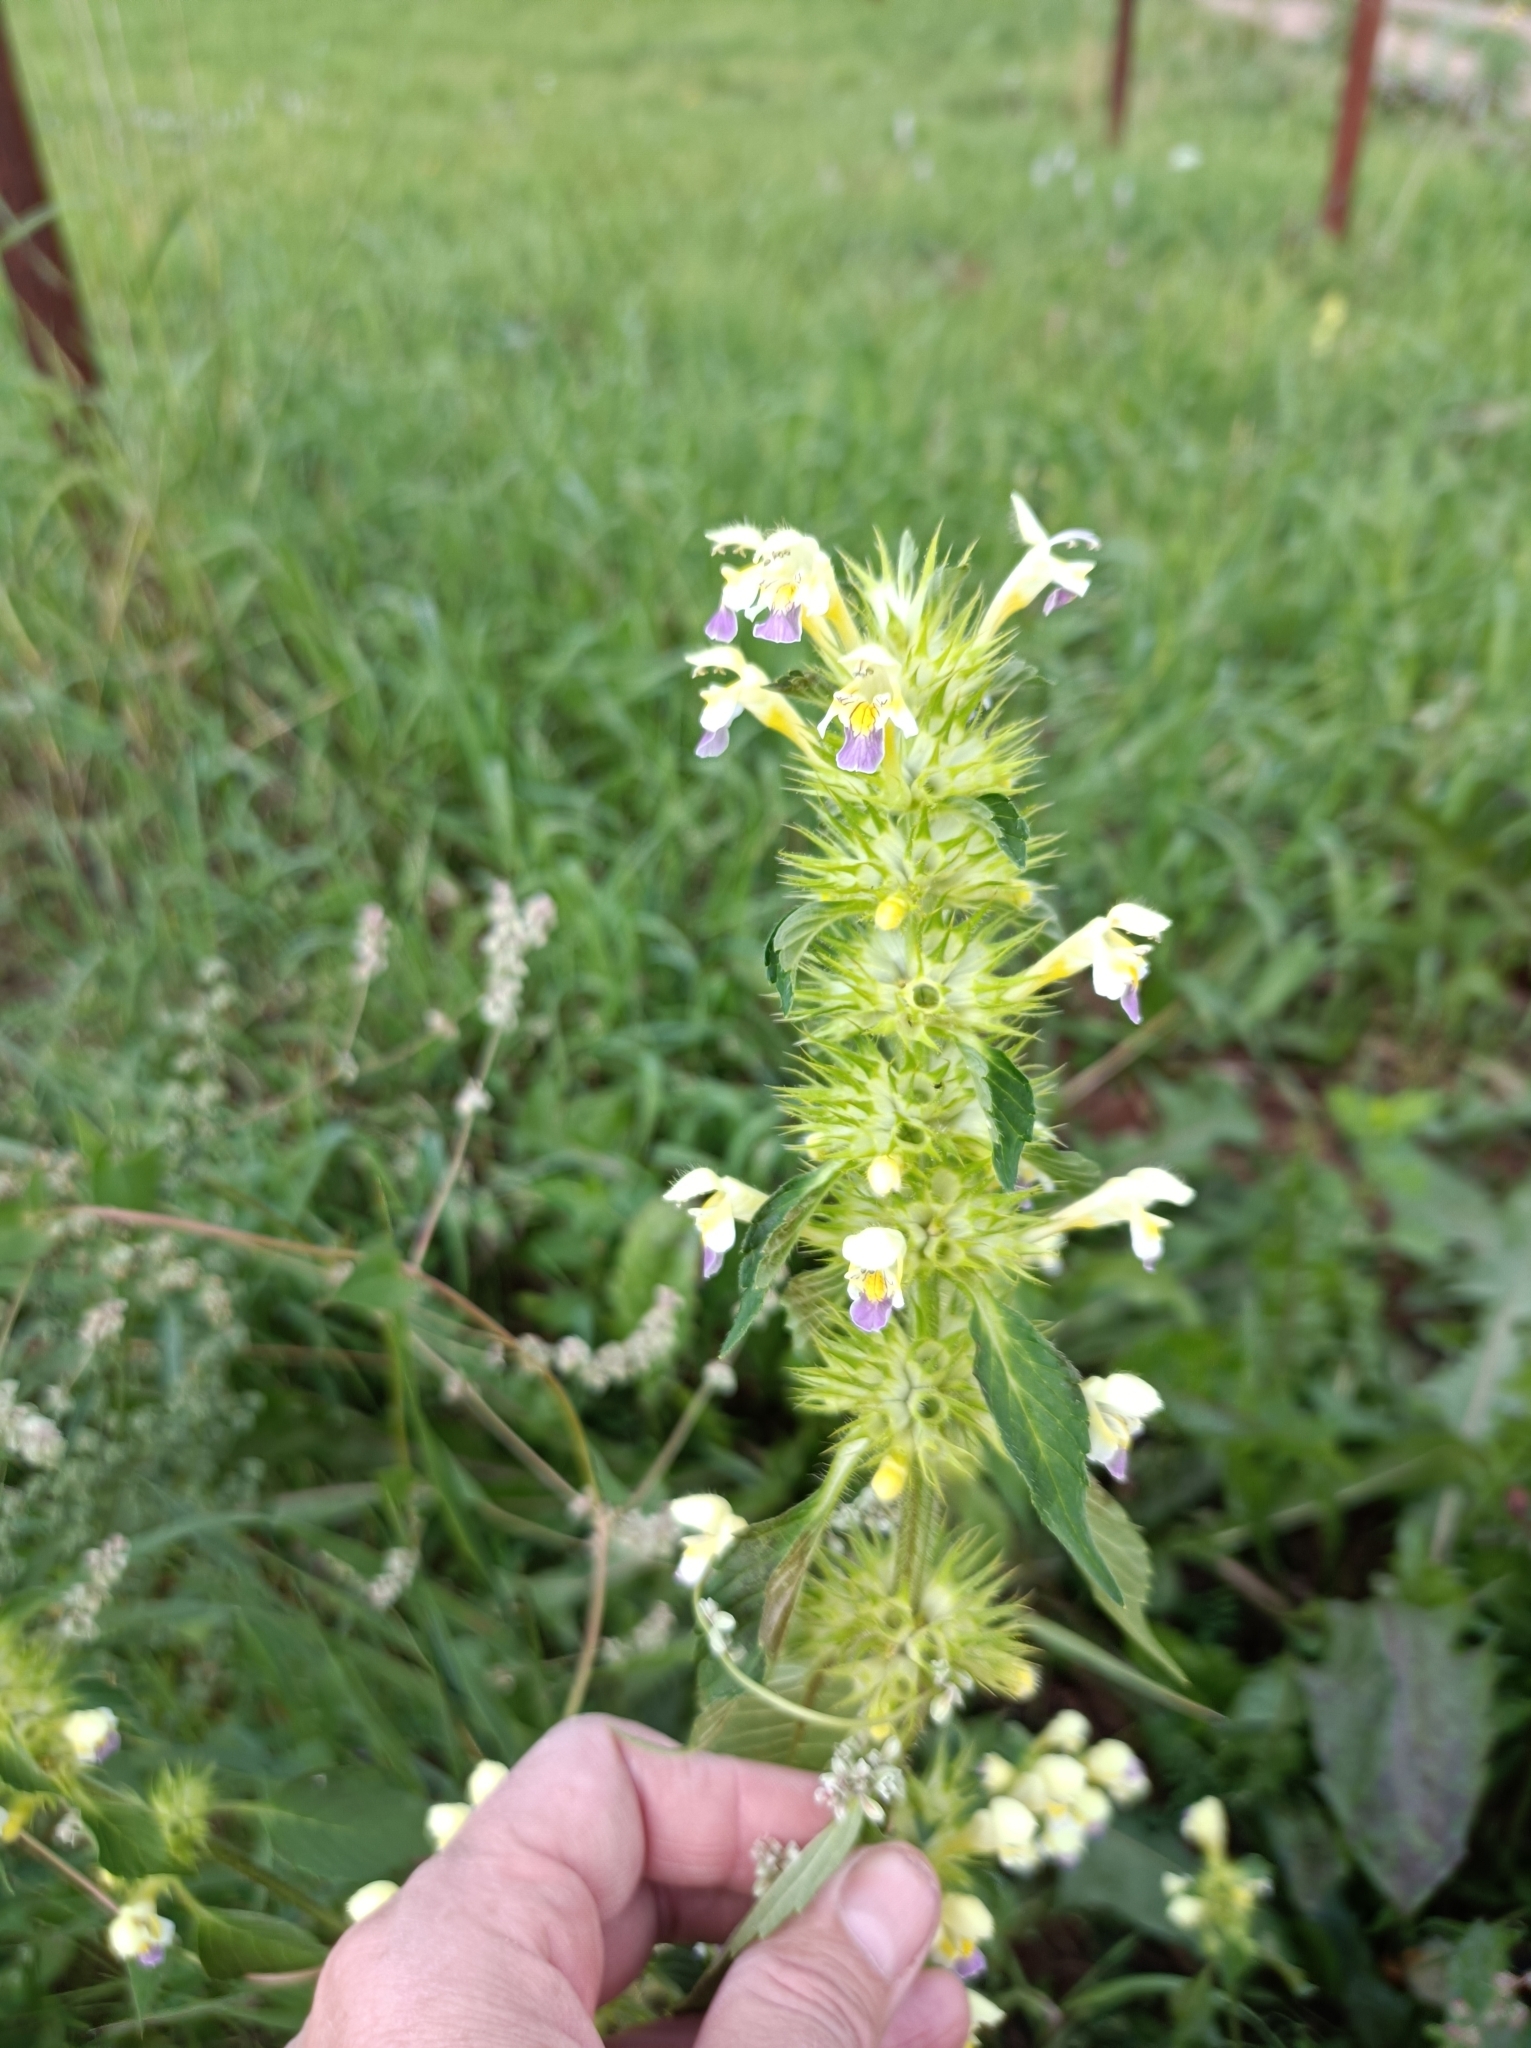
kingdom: Plantae
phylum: Tracheophyta
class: Magnoliopsida
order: Lamiales
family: Lamiaceae
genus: Galeopsis
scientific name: Galeopsis speciosa
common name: Large-flowered hemp-nettle
